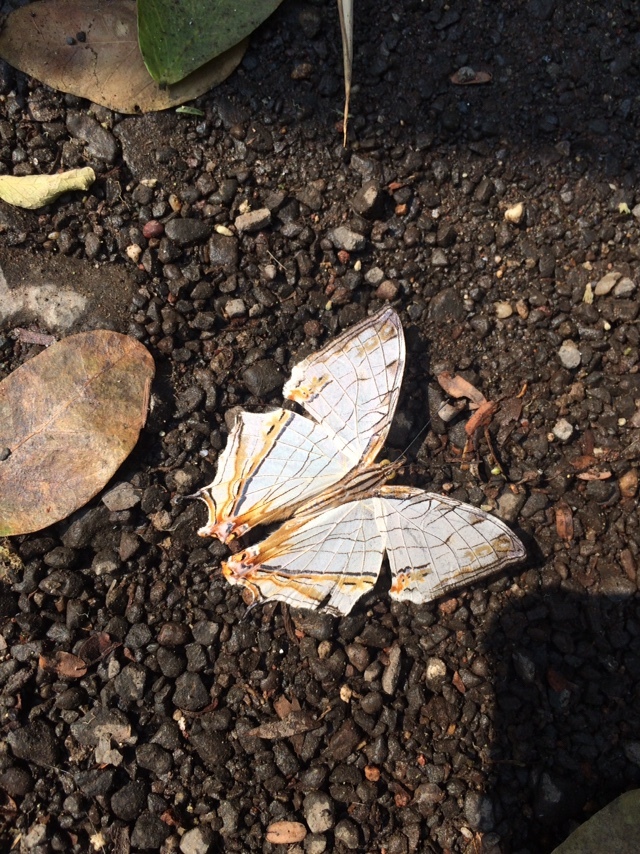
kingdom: Animalia
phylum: Arthropoda
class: Insecta
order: Lepidoptera
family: Nymphalidae
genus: Cyrestis
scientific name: Cyrestis thyodamas
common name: Common mapwing
